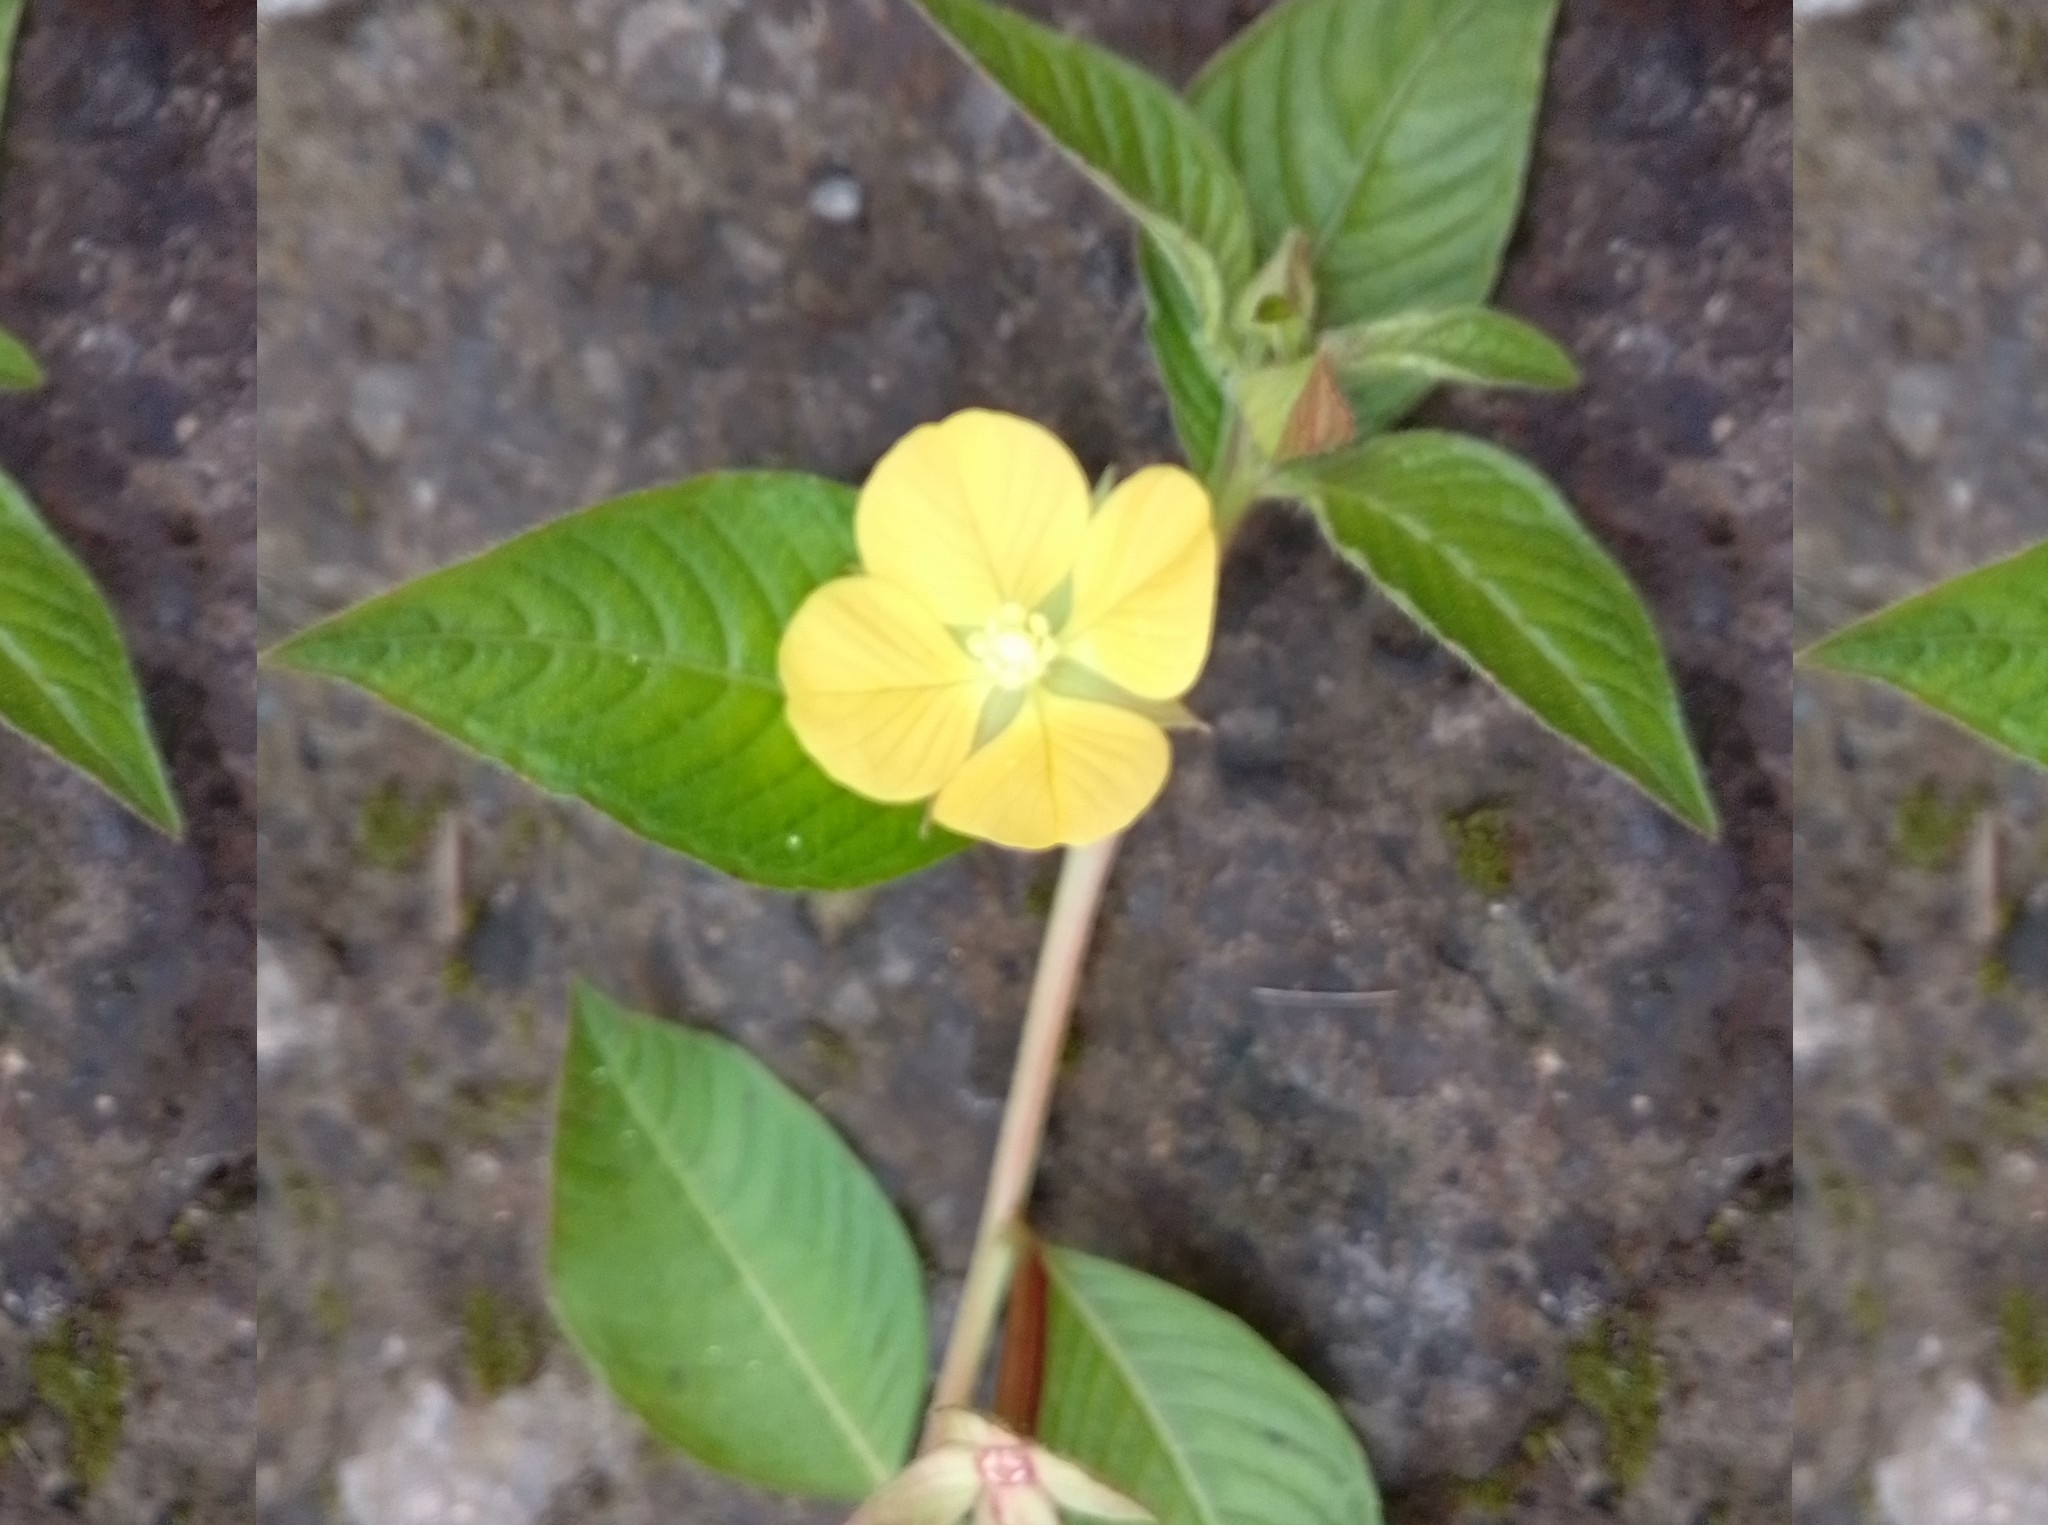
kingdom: Plantae
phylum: Tracheophyta
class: Magnoliopsida
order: Myrtales
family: Onagraceae
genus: Ludwigia
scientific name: Ludwigia octovalvis
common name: Water-primrose
